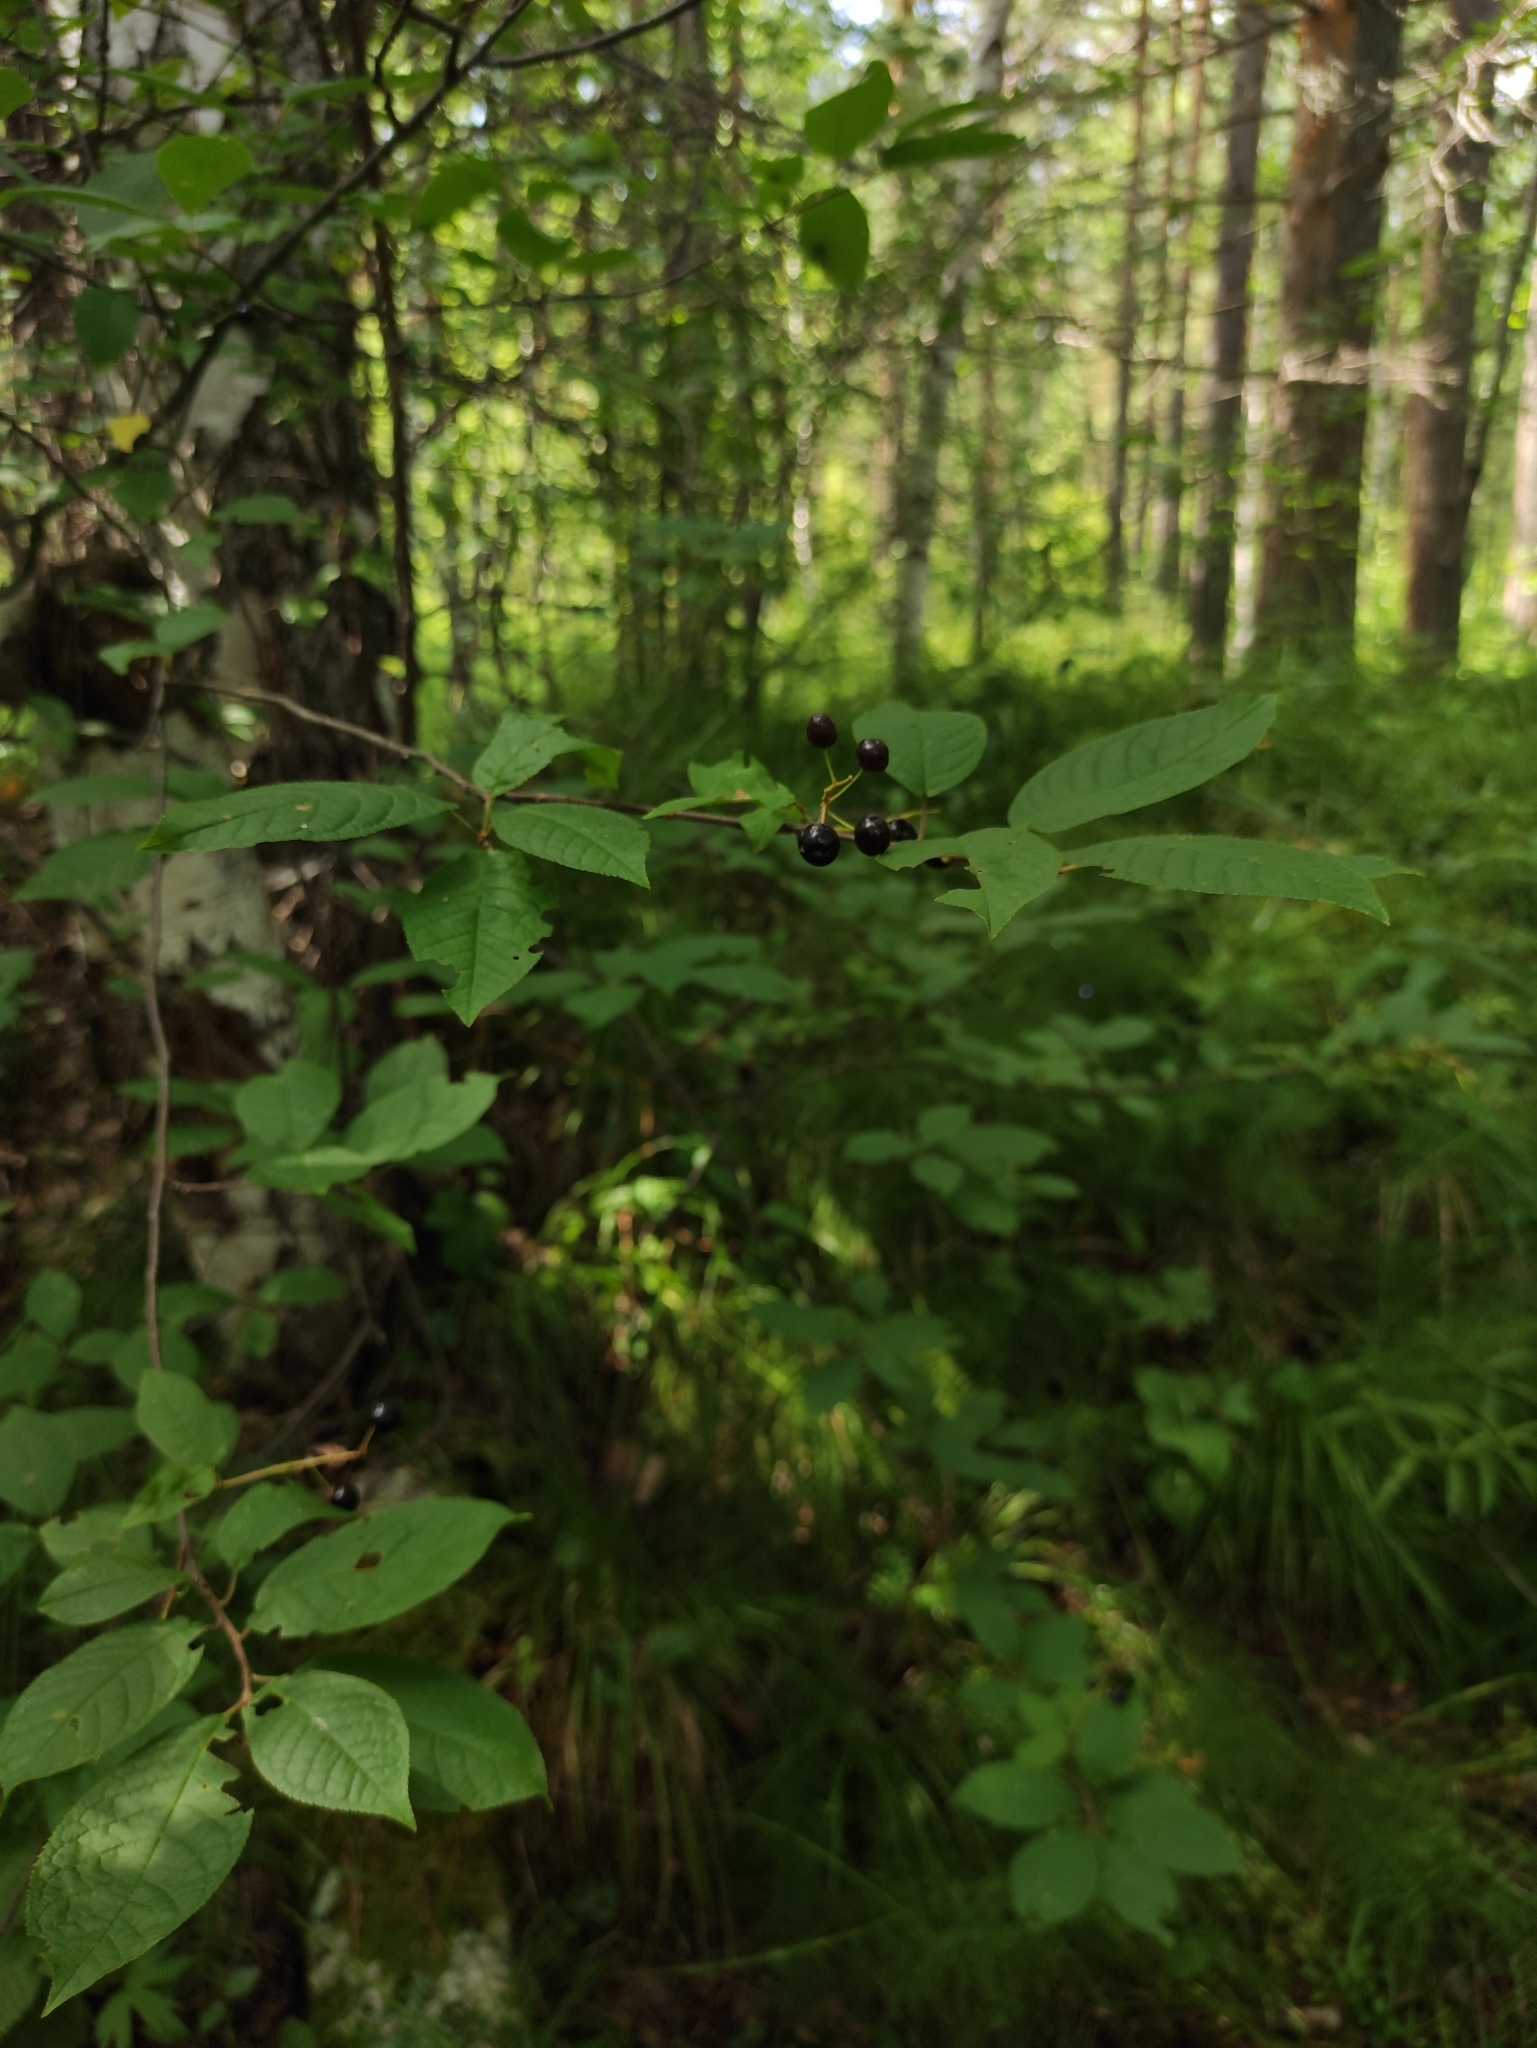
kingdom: Plantae
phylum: Tracheophyta
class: Magnoliopsida
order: Rosales
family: Rosaceae
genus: Prunus
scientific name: Prunus padus
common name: Bird cherry
